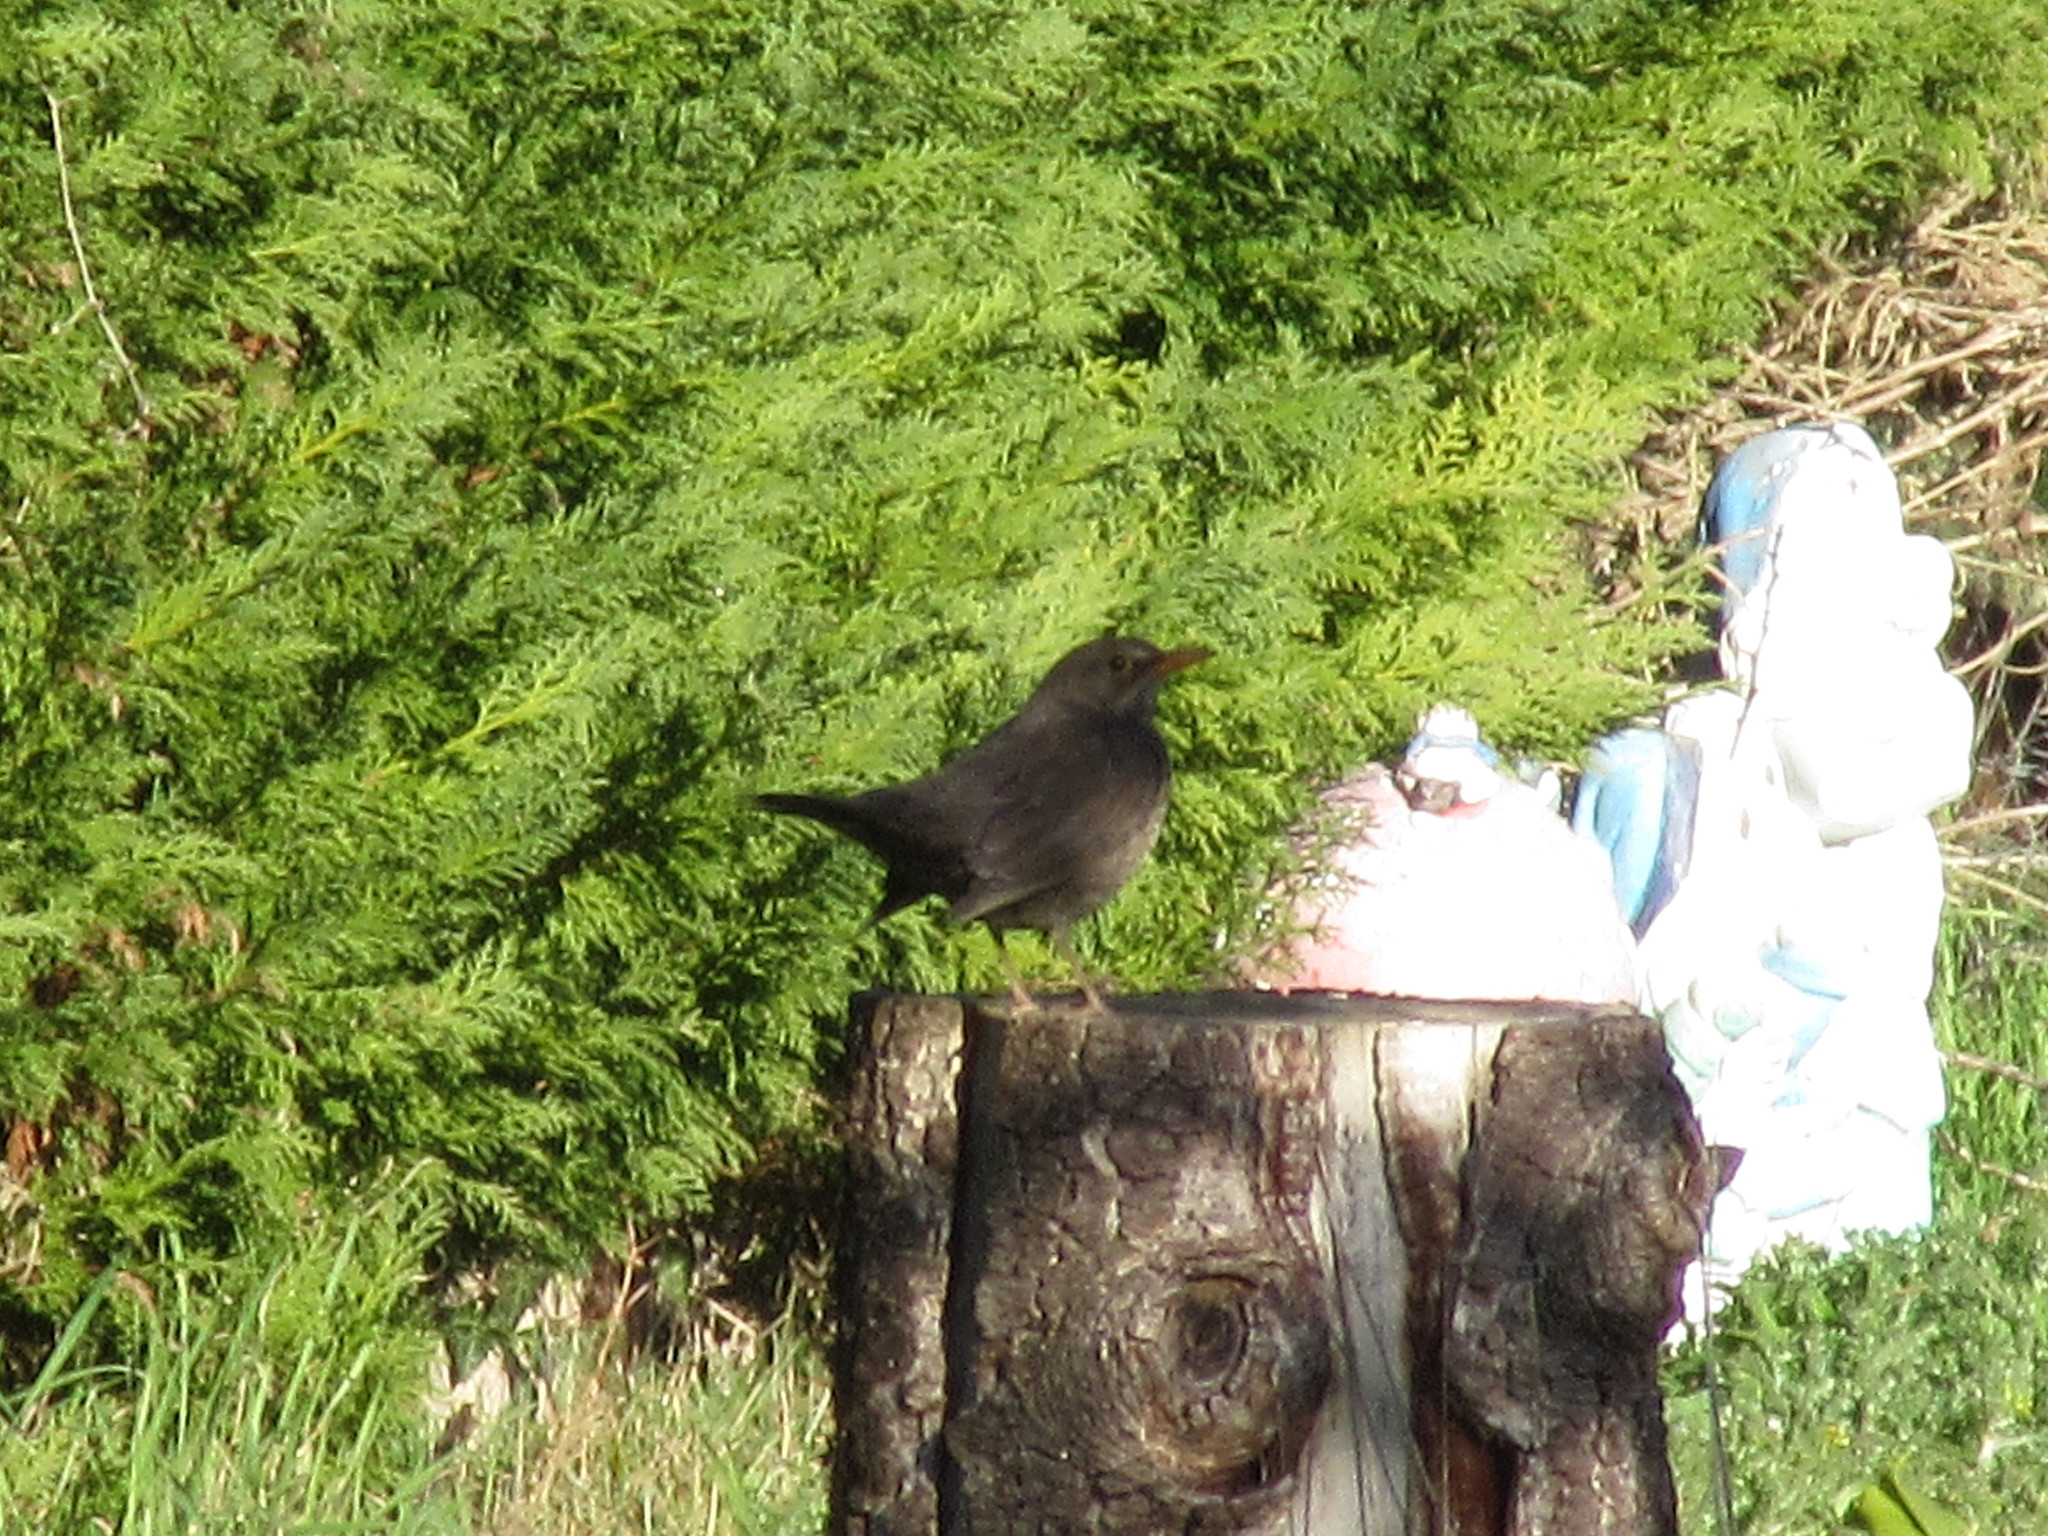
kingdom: Animalia
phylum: Chordata
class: Aves
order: Passeriformes
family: Turdidae
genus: Turdus
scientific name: Turdus merula
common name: Common blackbird
